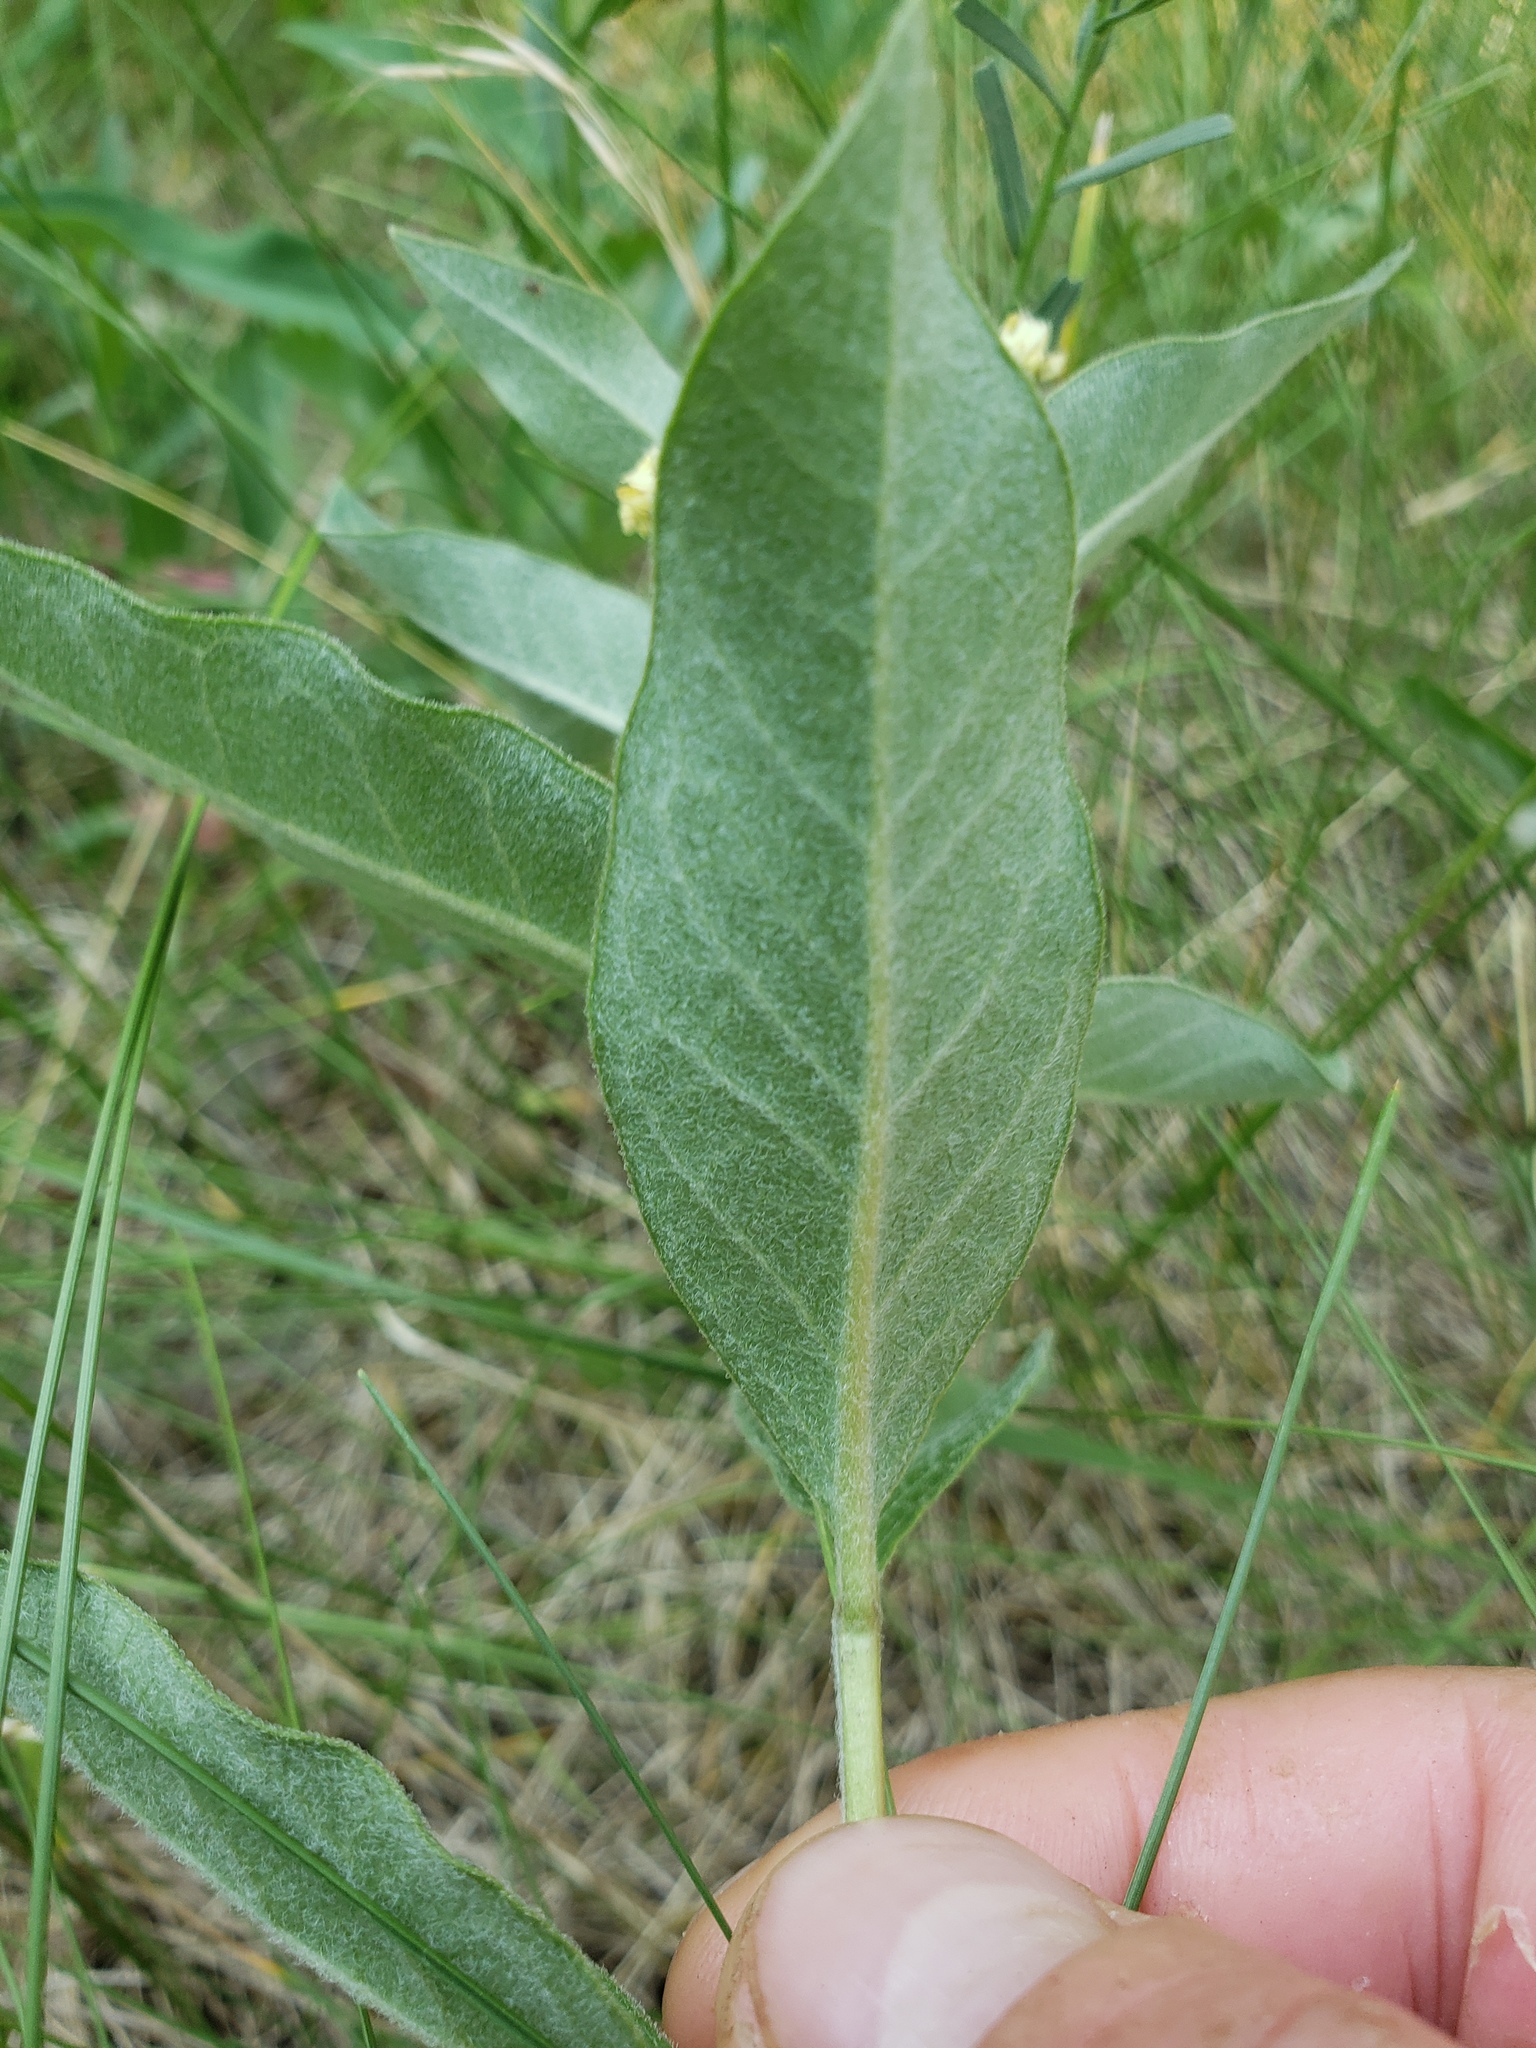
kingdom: Plantae
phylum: Tracheophyta
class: Magnoliopsida
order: Gentianales
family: Apocynaceae
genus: Asclepias
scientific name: Asclepias ovalifolia
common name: Dwarf milkweed
